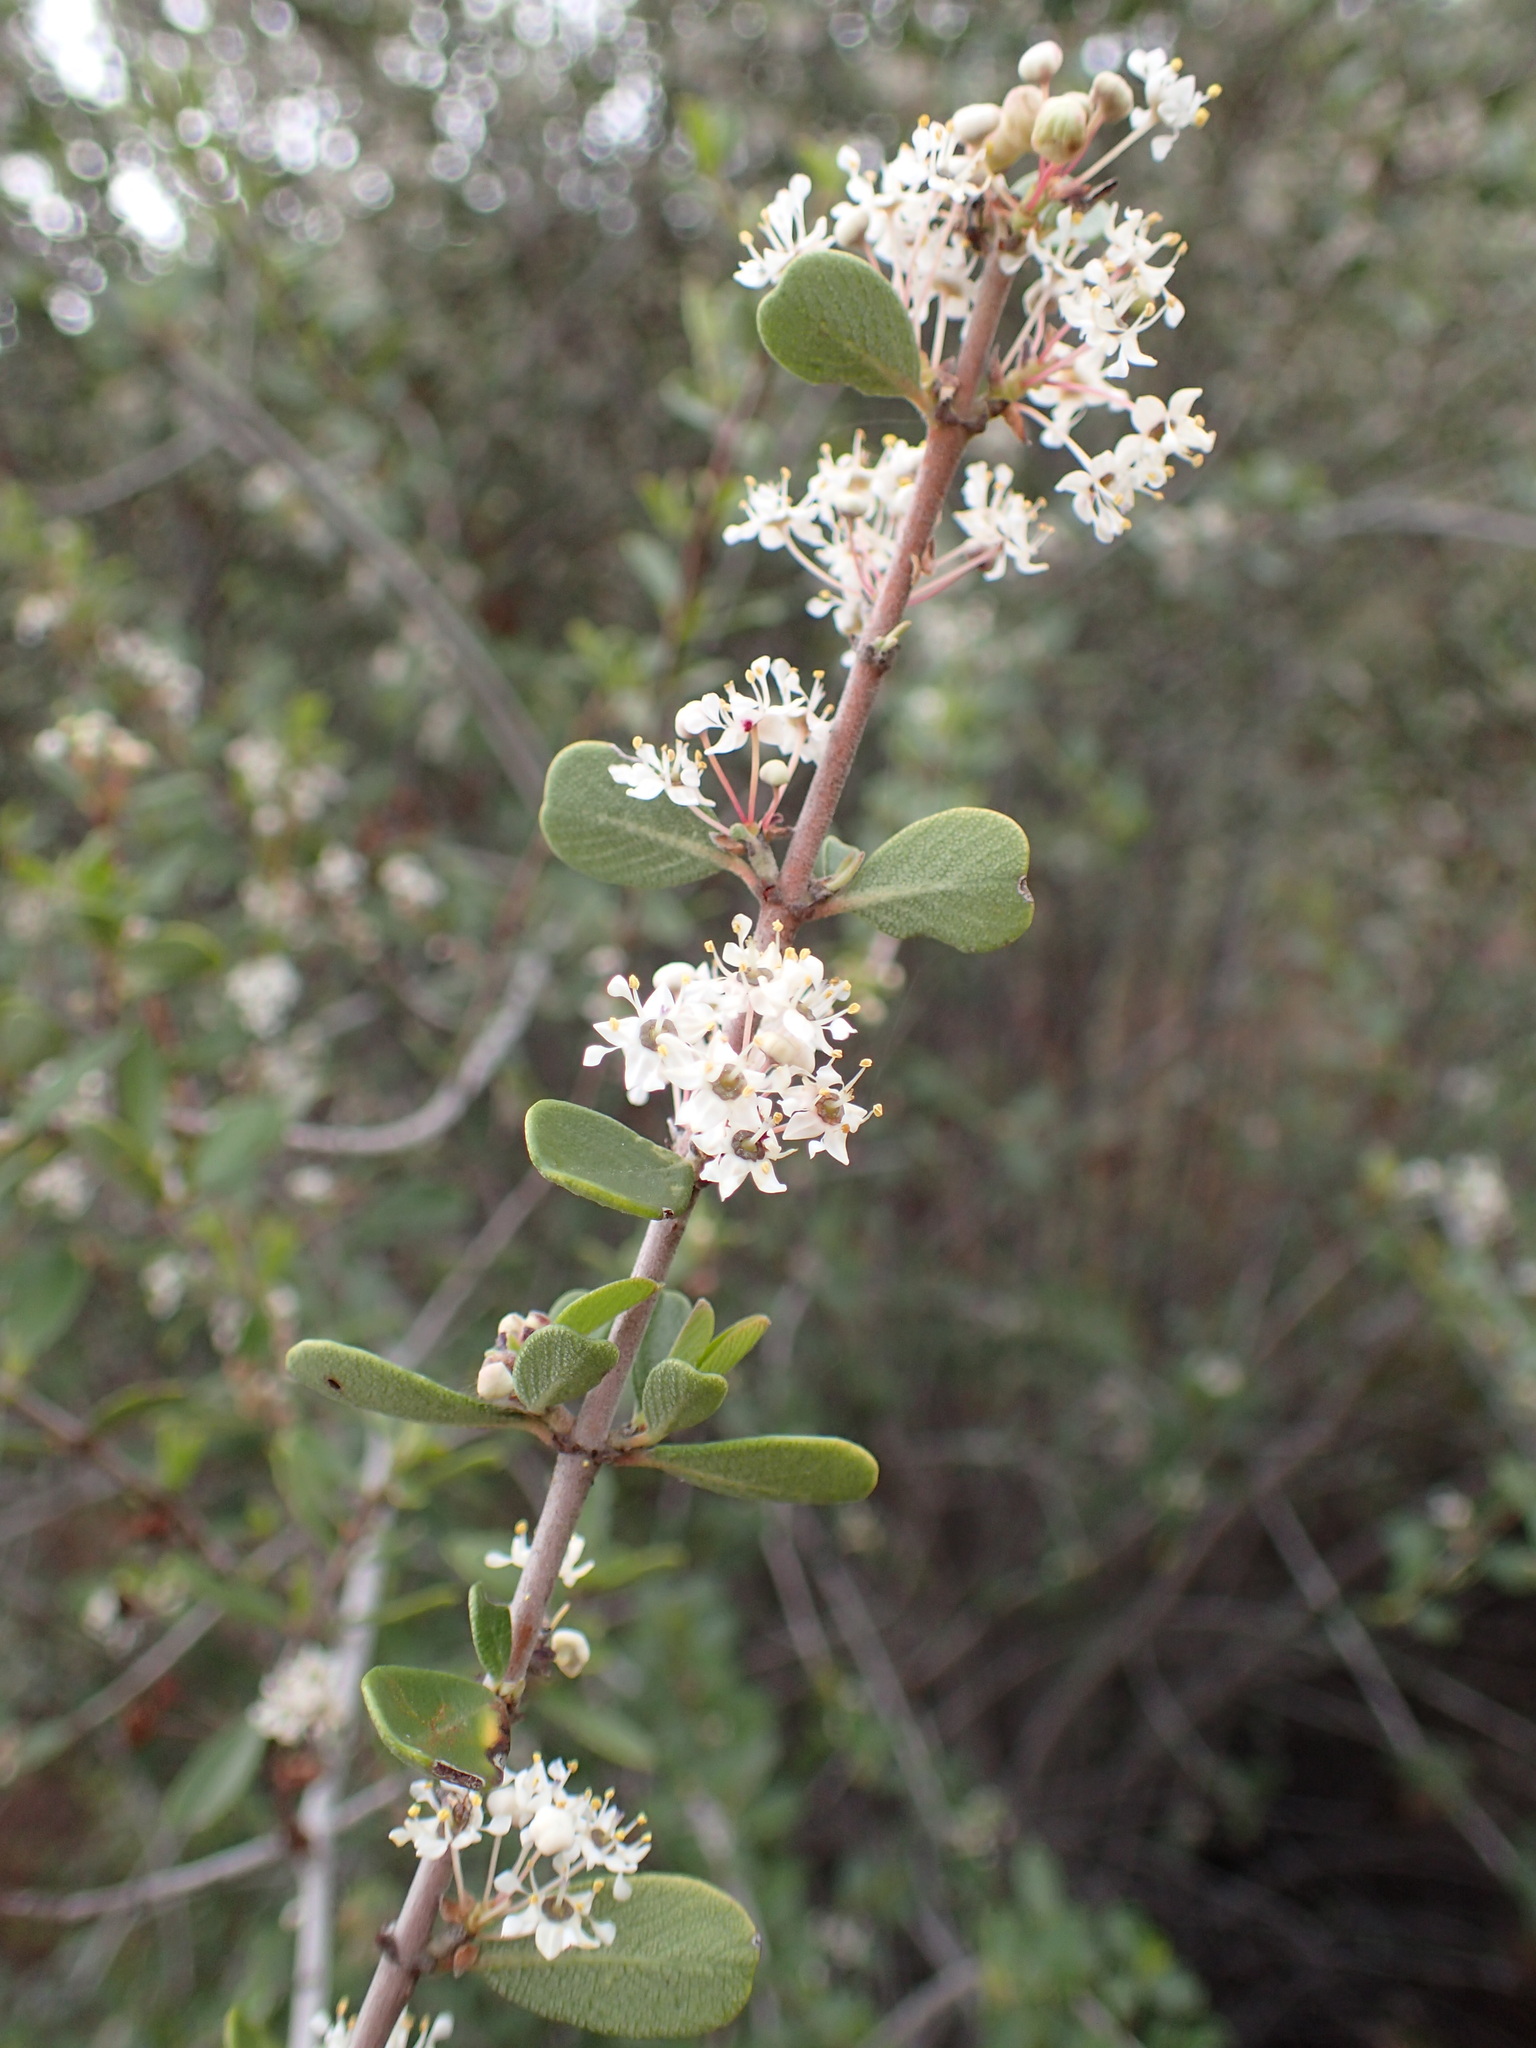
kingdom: Plantae
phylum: Tracheophyta
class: Magnoliopsida
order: Rosales
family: Rhamnaceae
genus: Ceanothus
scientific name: Ceanothus cuneatus
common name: Cuneate ceanothus
